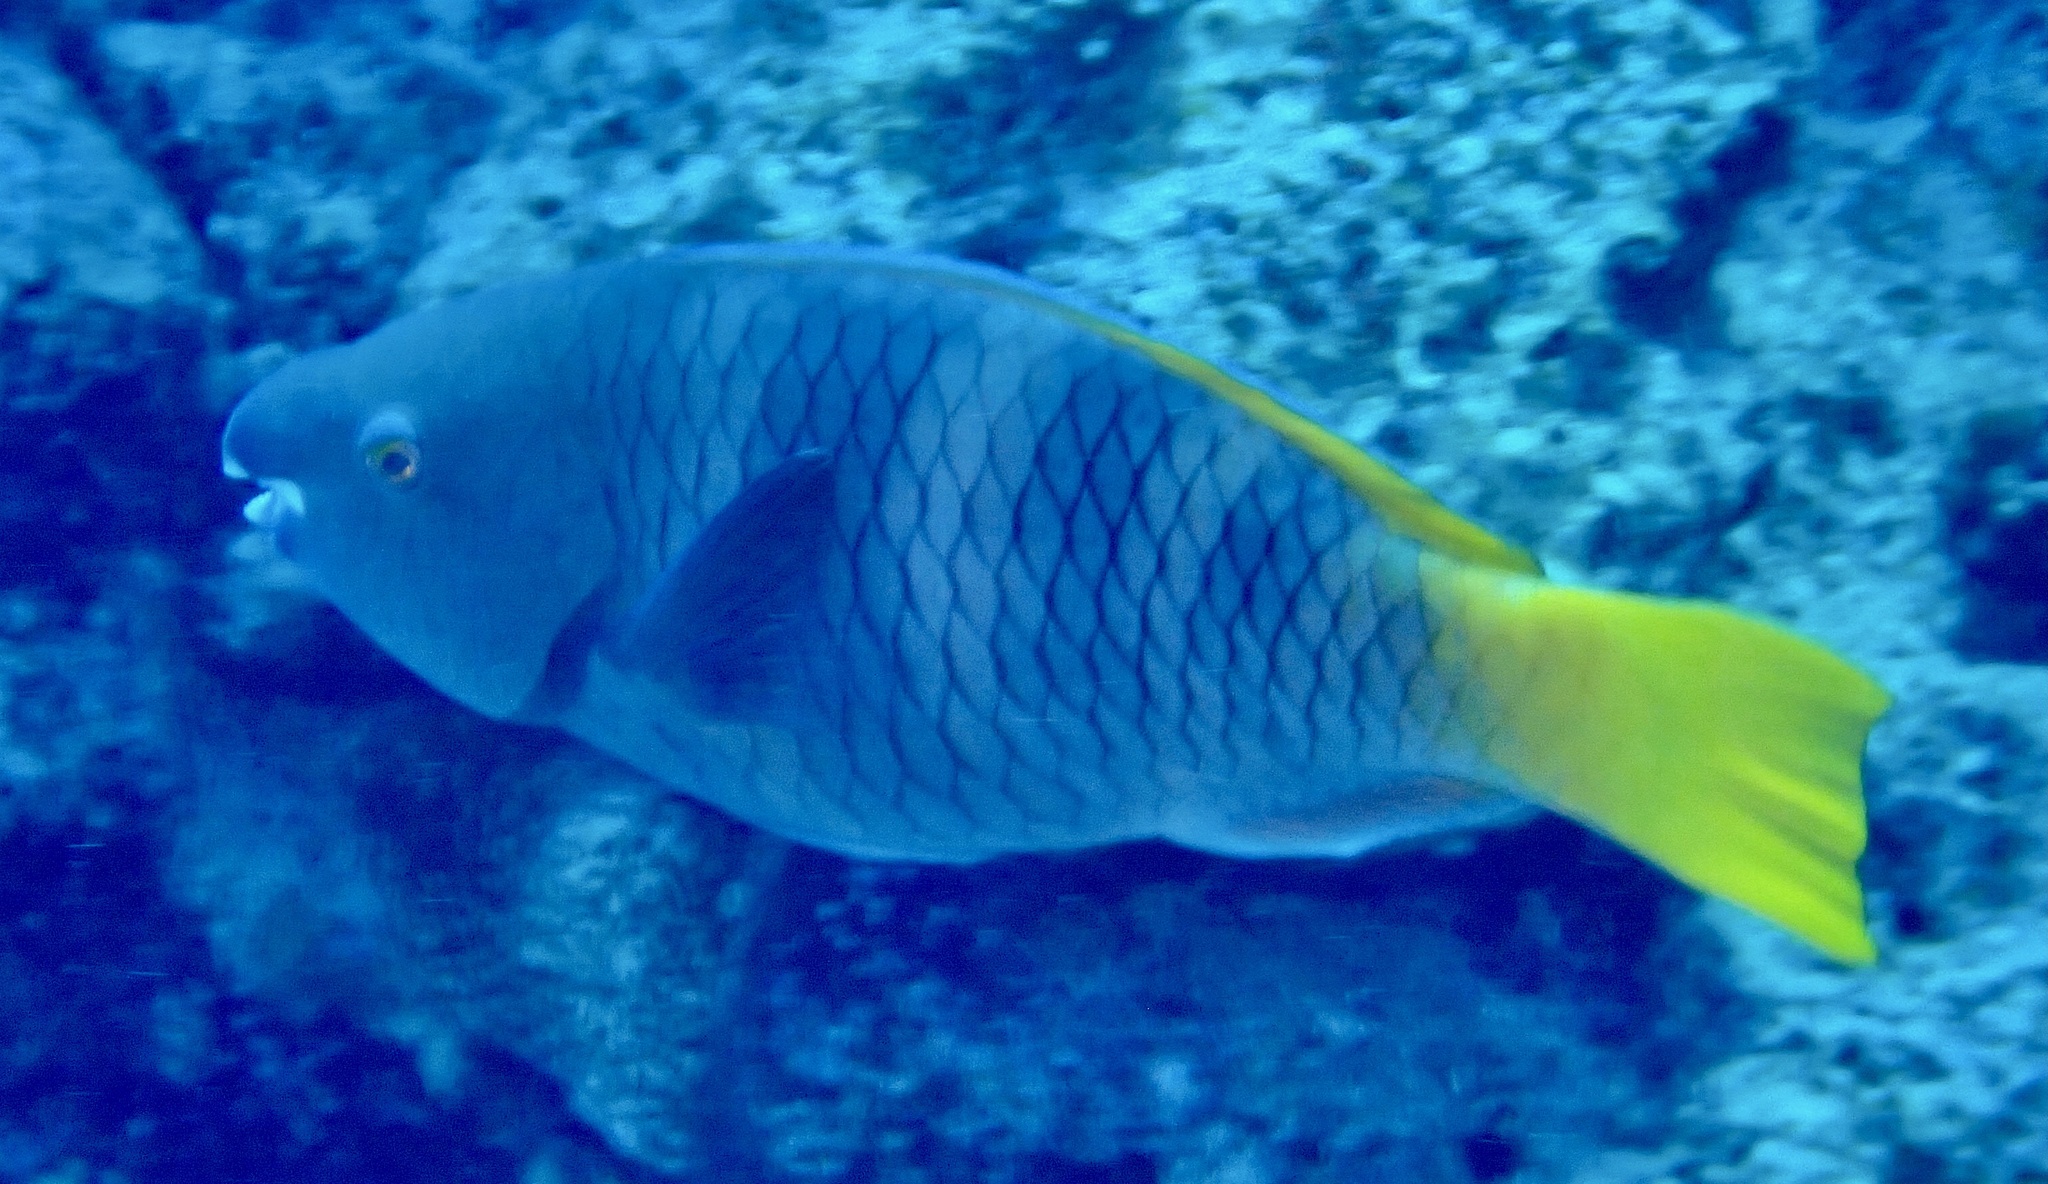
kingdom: Animalia
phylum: Chordata
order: Perciformes
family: Scaridae
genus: Scarus
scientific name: Scarus ferrugineus
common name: Rusty parrotfish
